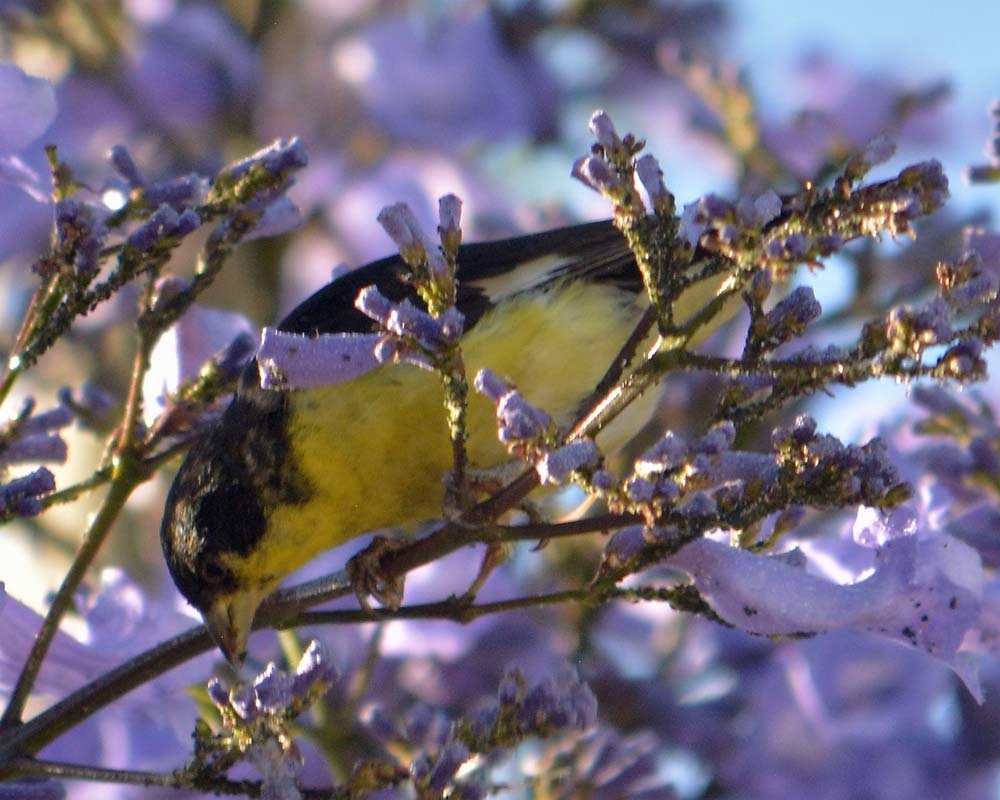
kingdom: Animalia
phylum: Chordata
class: Aves
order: Passeriformes
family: Fringillidae
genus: Spinus
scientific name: Spinus psaltria
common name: Lesser goldfinch
